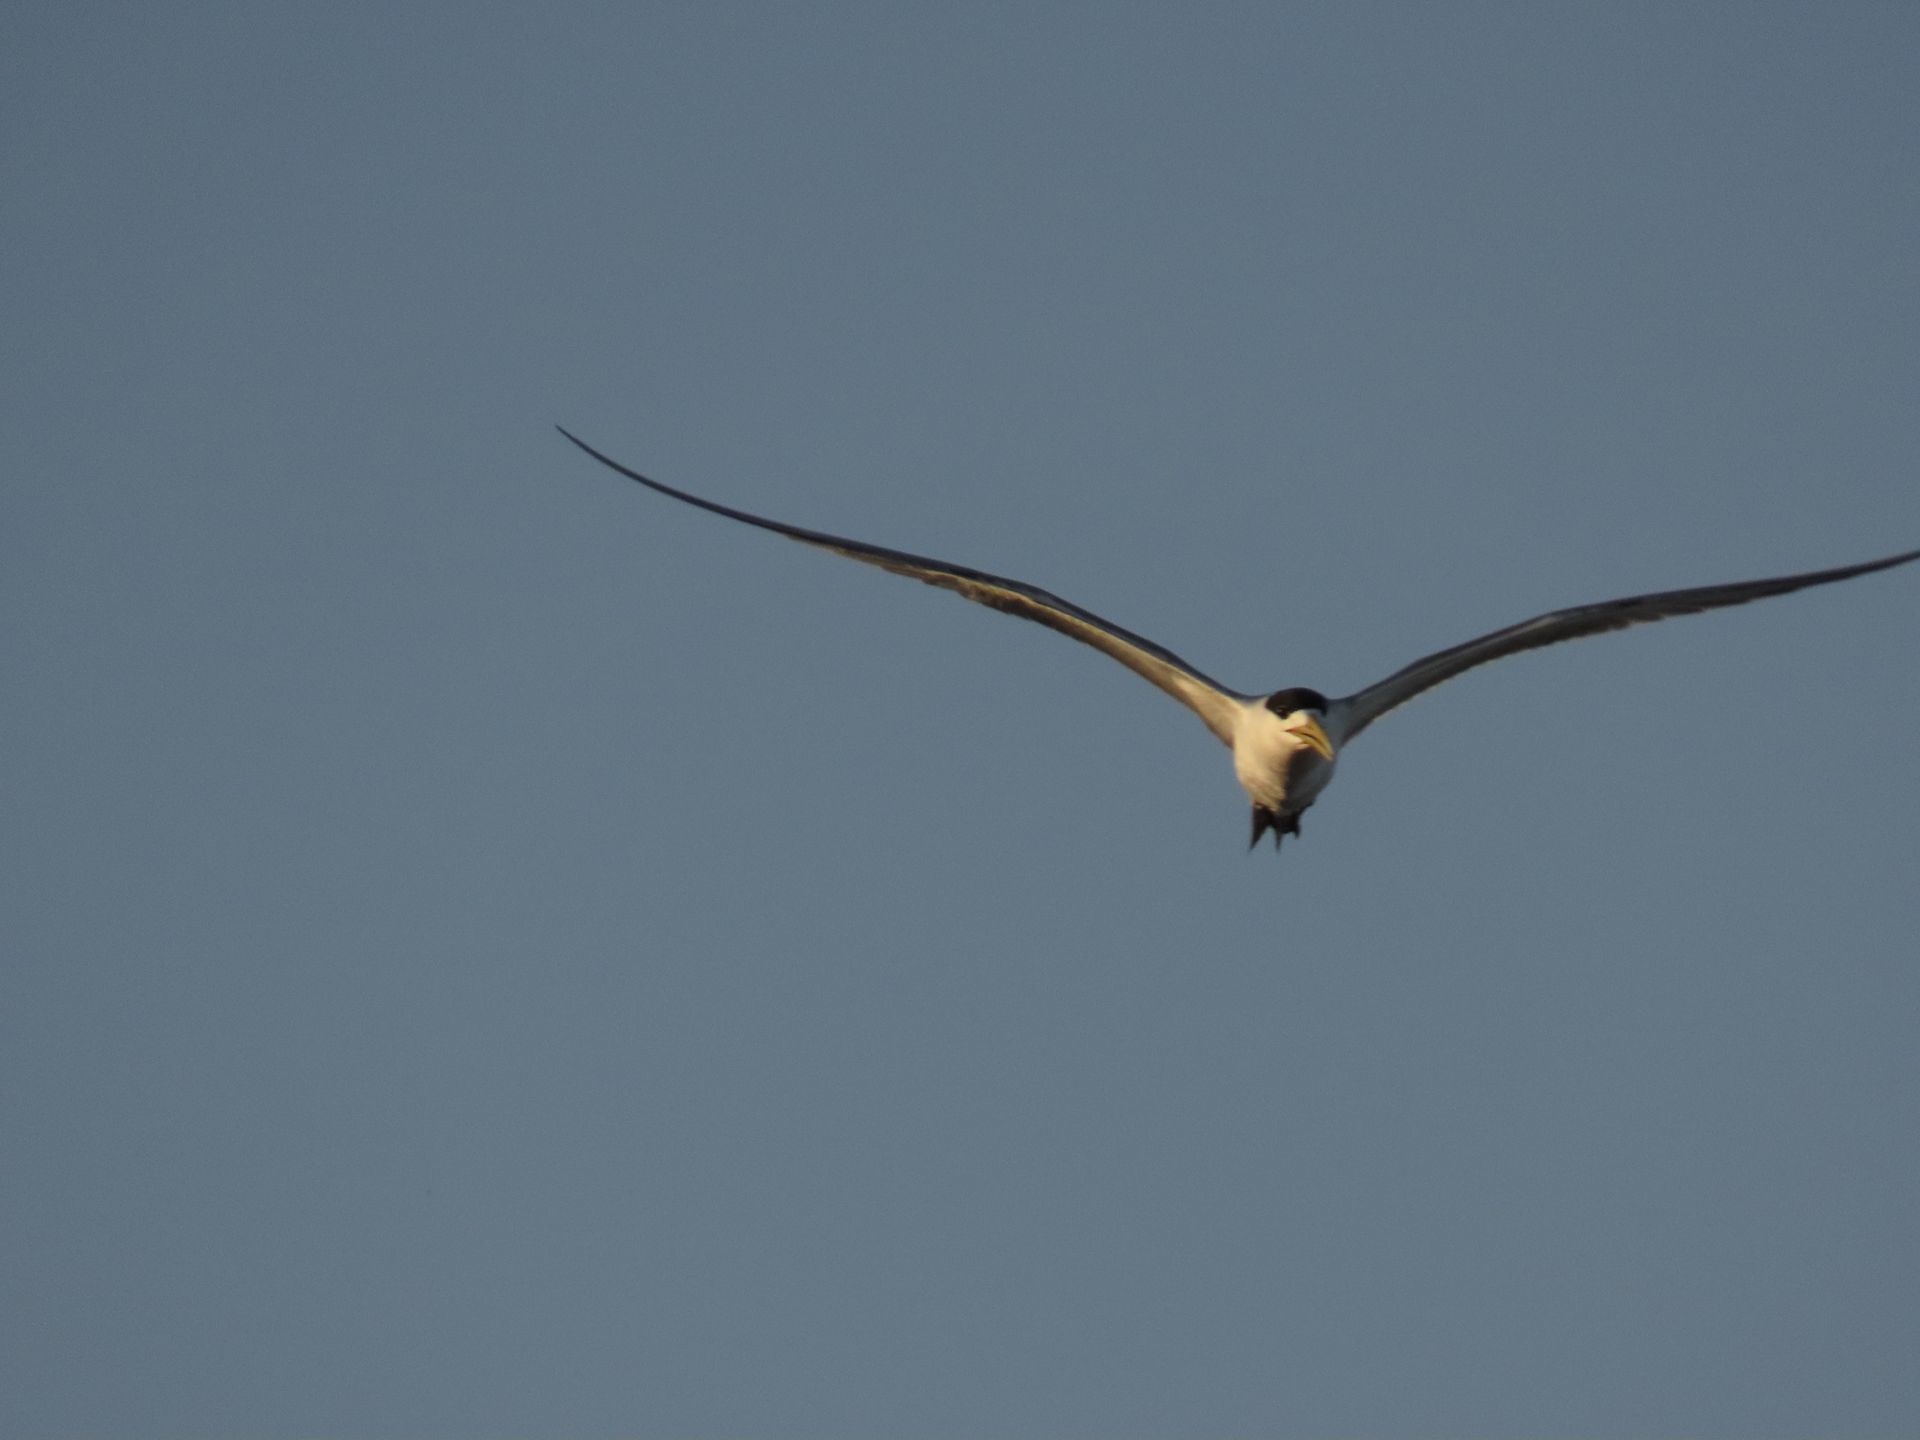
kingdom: Animalia
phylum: Chordata
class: Aves
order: Charadriiformes
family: Laridae
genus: Thalasseus
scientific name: Thalasseus bergii
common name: Greater crested tern
